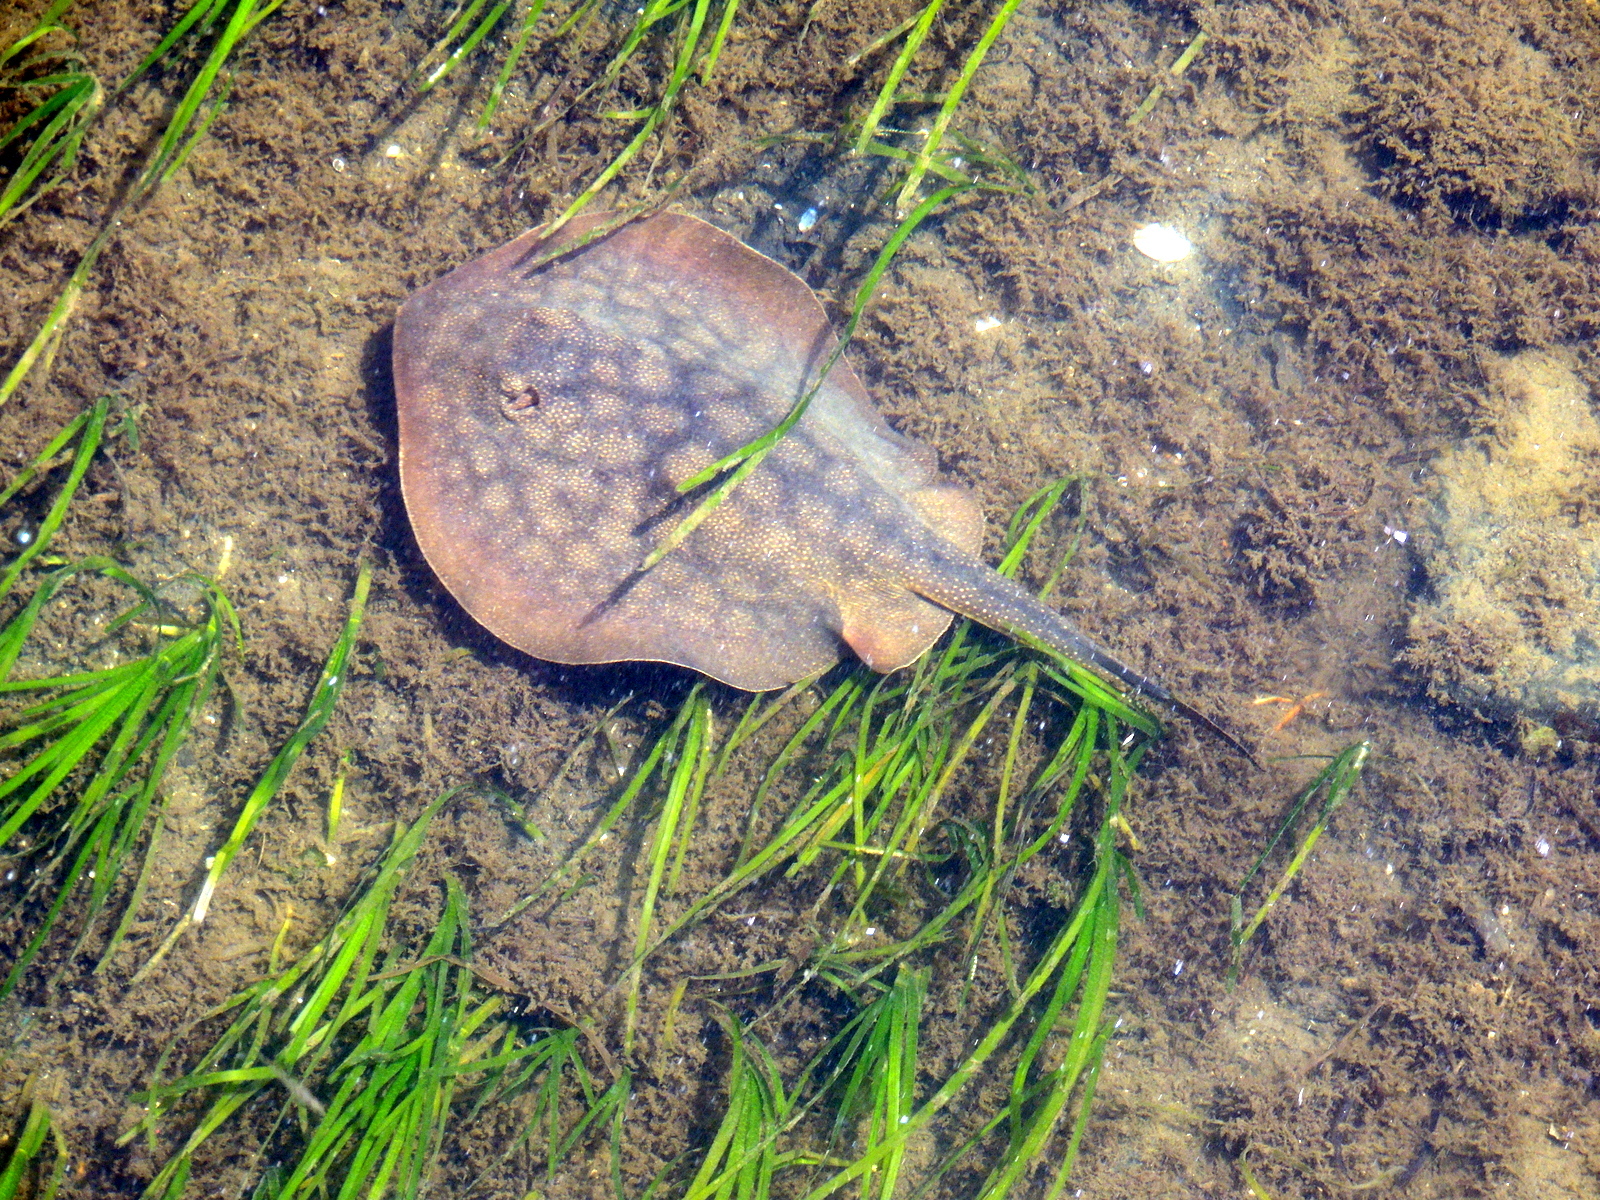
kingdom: Animalia
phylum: Chordata
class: Elasmobranchii
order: Myliobatiformes
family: Urolophidae
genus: Urolophus
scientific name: Urolophus halleri
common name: Round stingray
